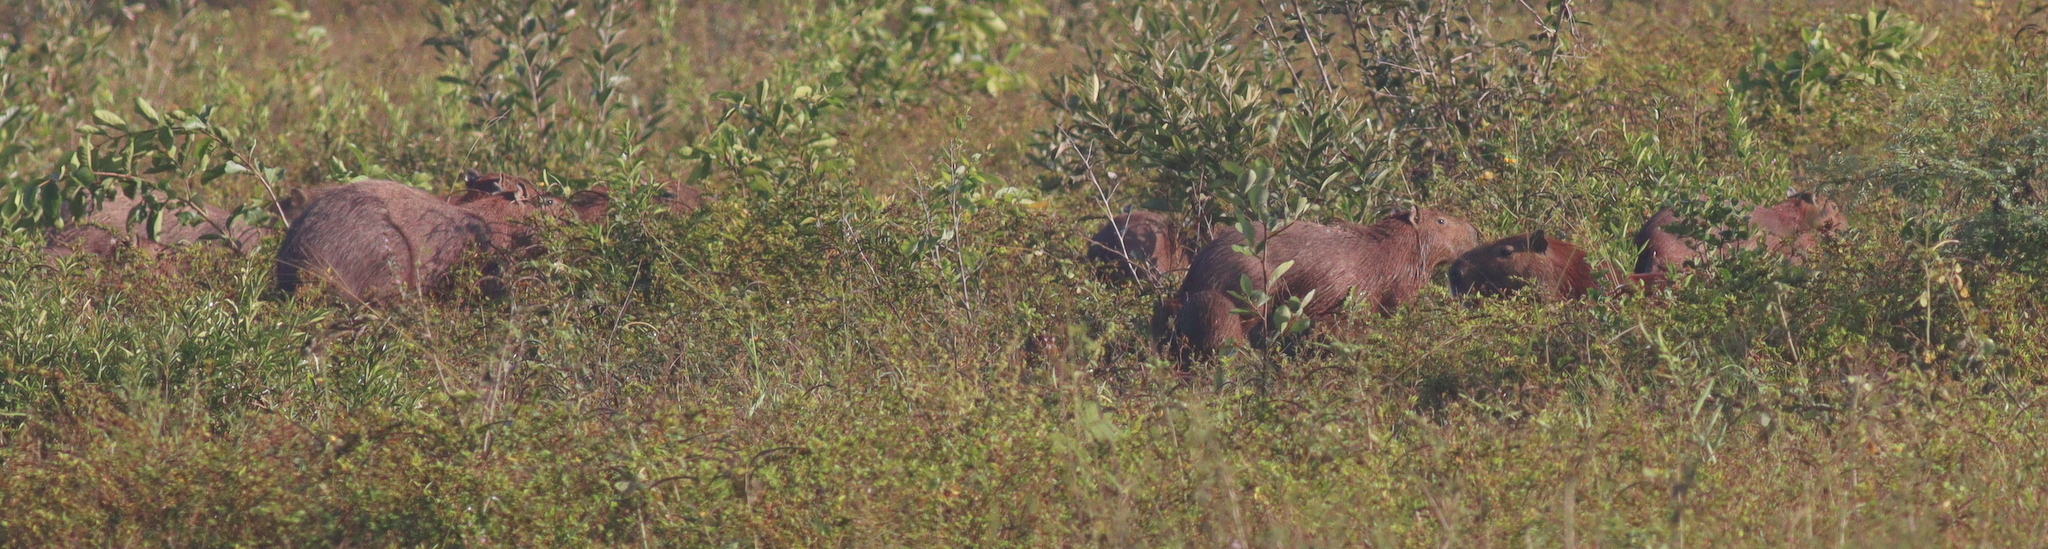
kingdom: Animalia
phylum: Chordata
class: Mammalia
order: Rodentia
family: Caviidae
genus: Hydrochoerus
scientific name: Hydrochoerus hydrochaeris
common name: Capybara
